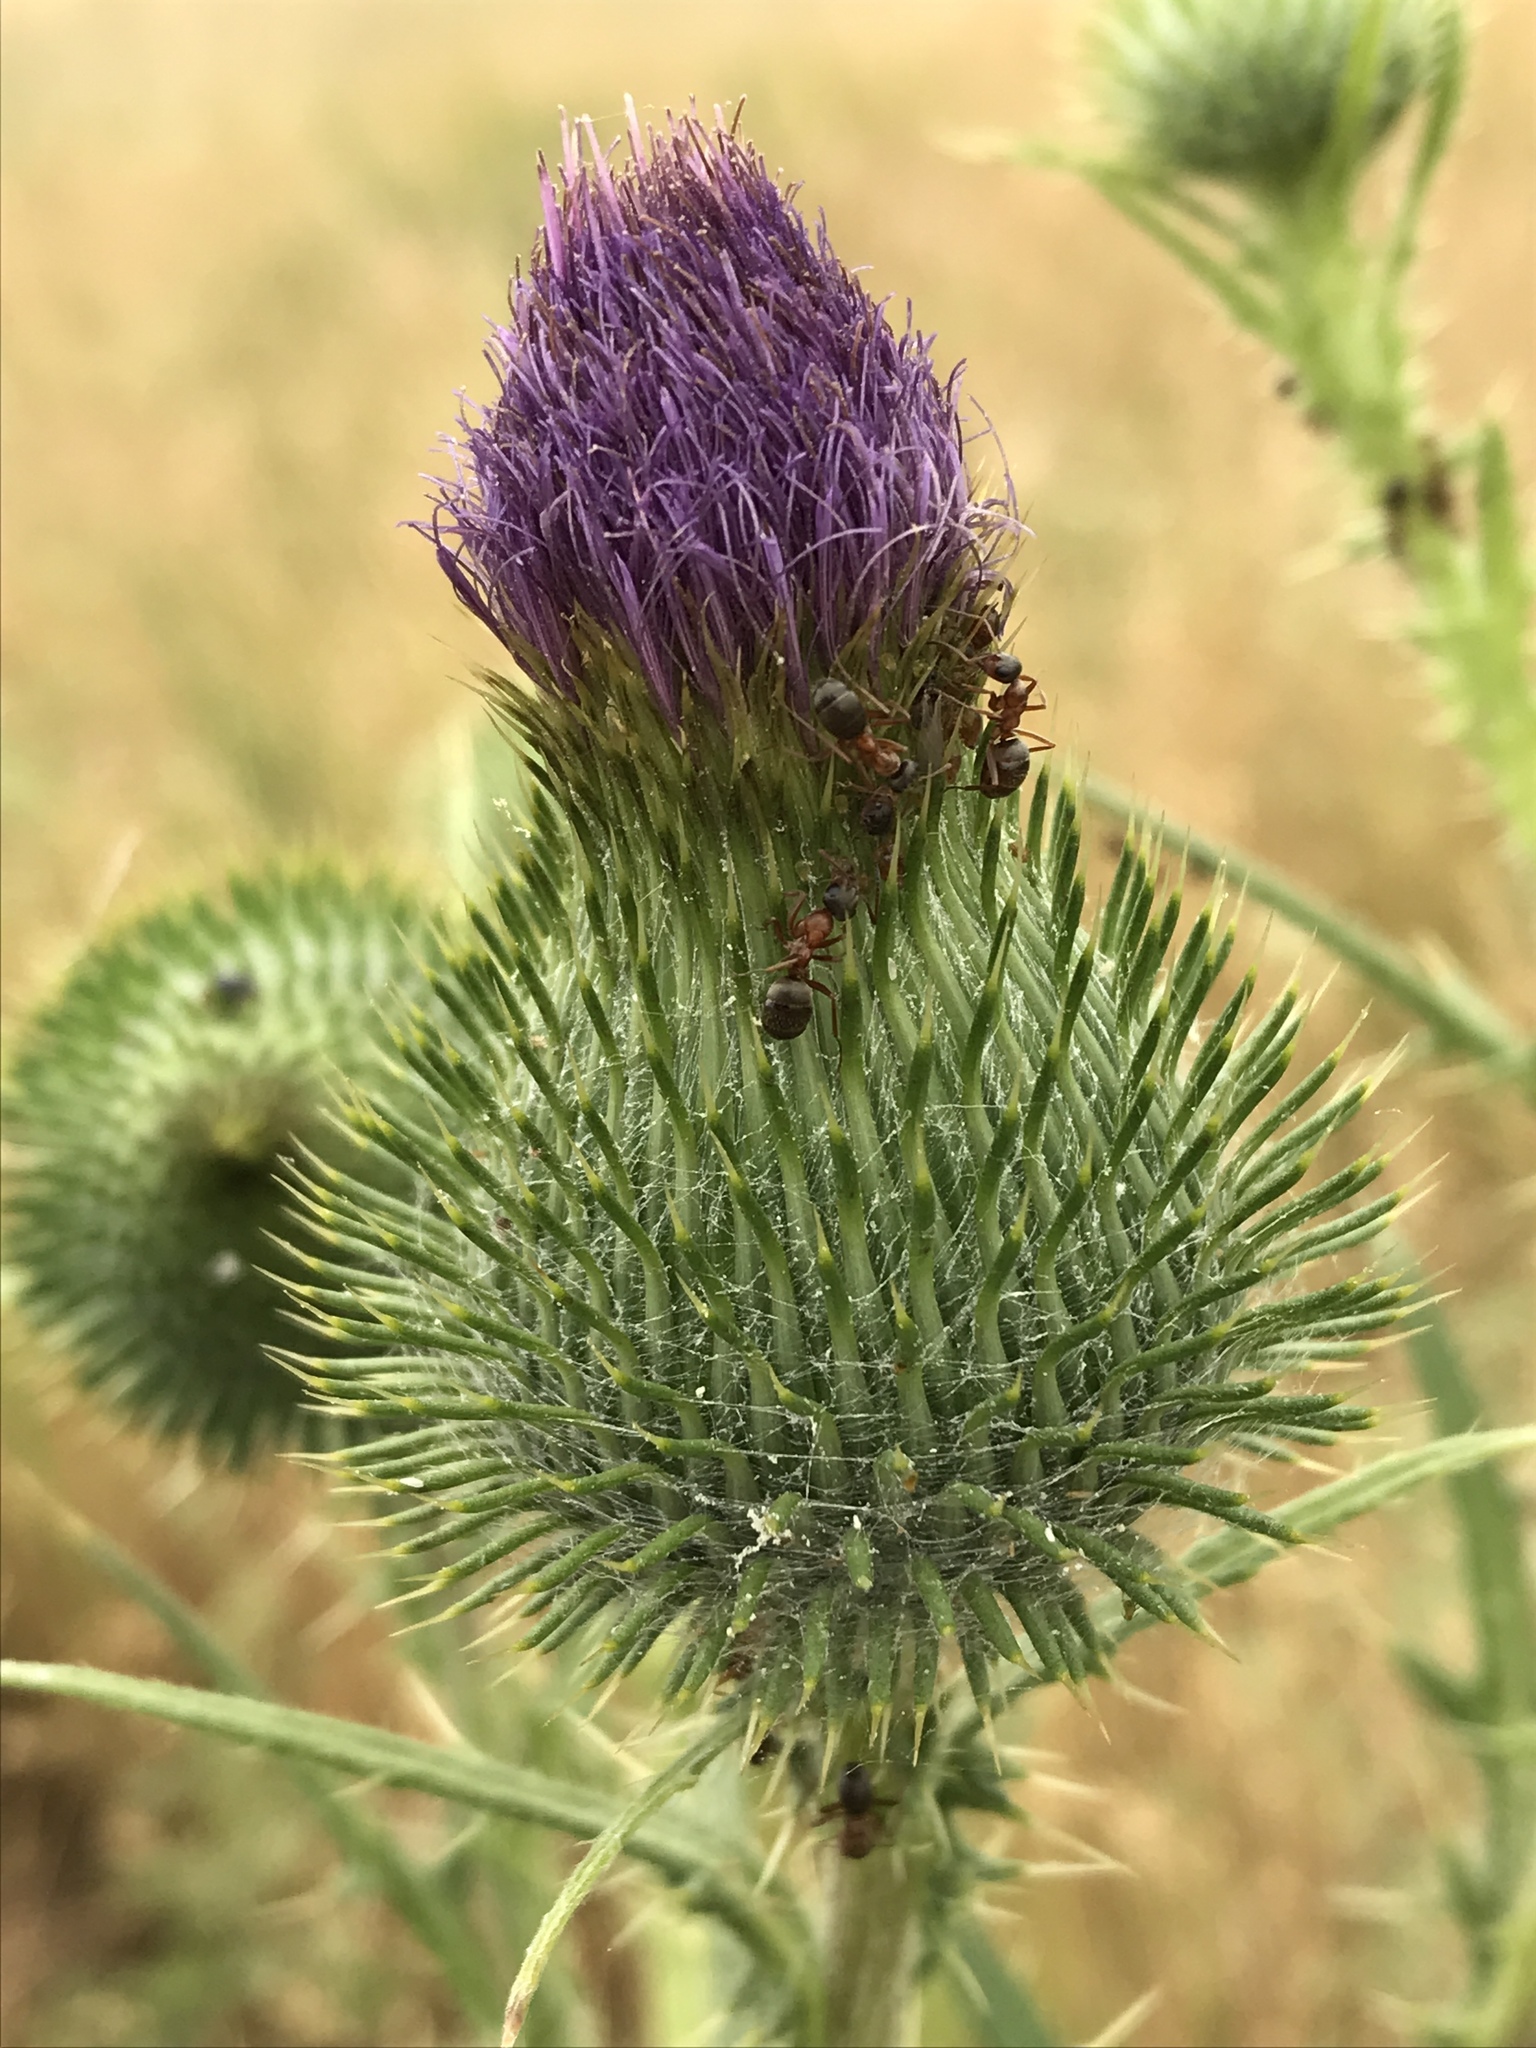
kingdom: Plantae
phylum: Tracheophyta
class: Magnoliopsida
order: Asterales
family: Asteraceae
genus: Cirsium
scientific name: Cirsium vulgare
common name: Bull thistle
